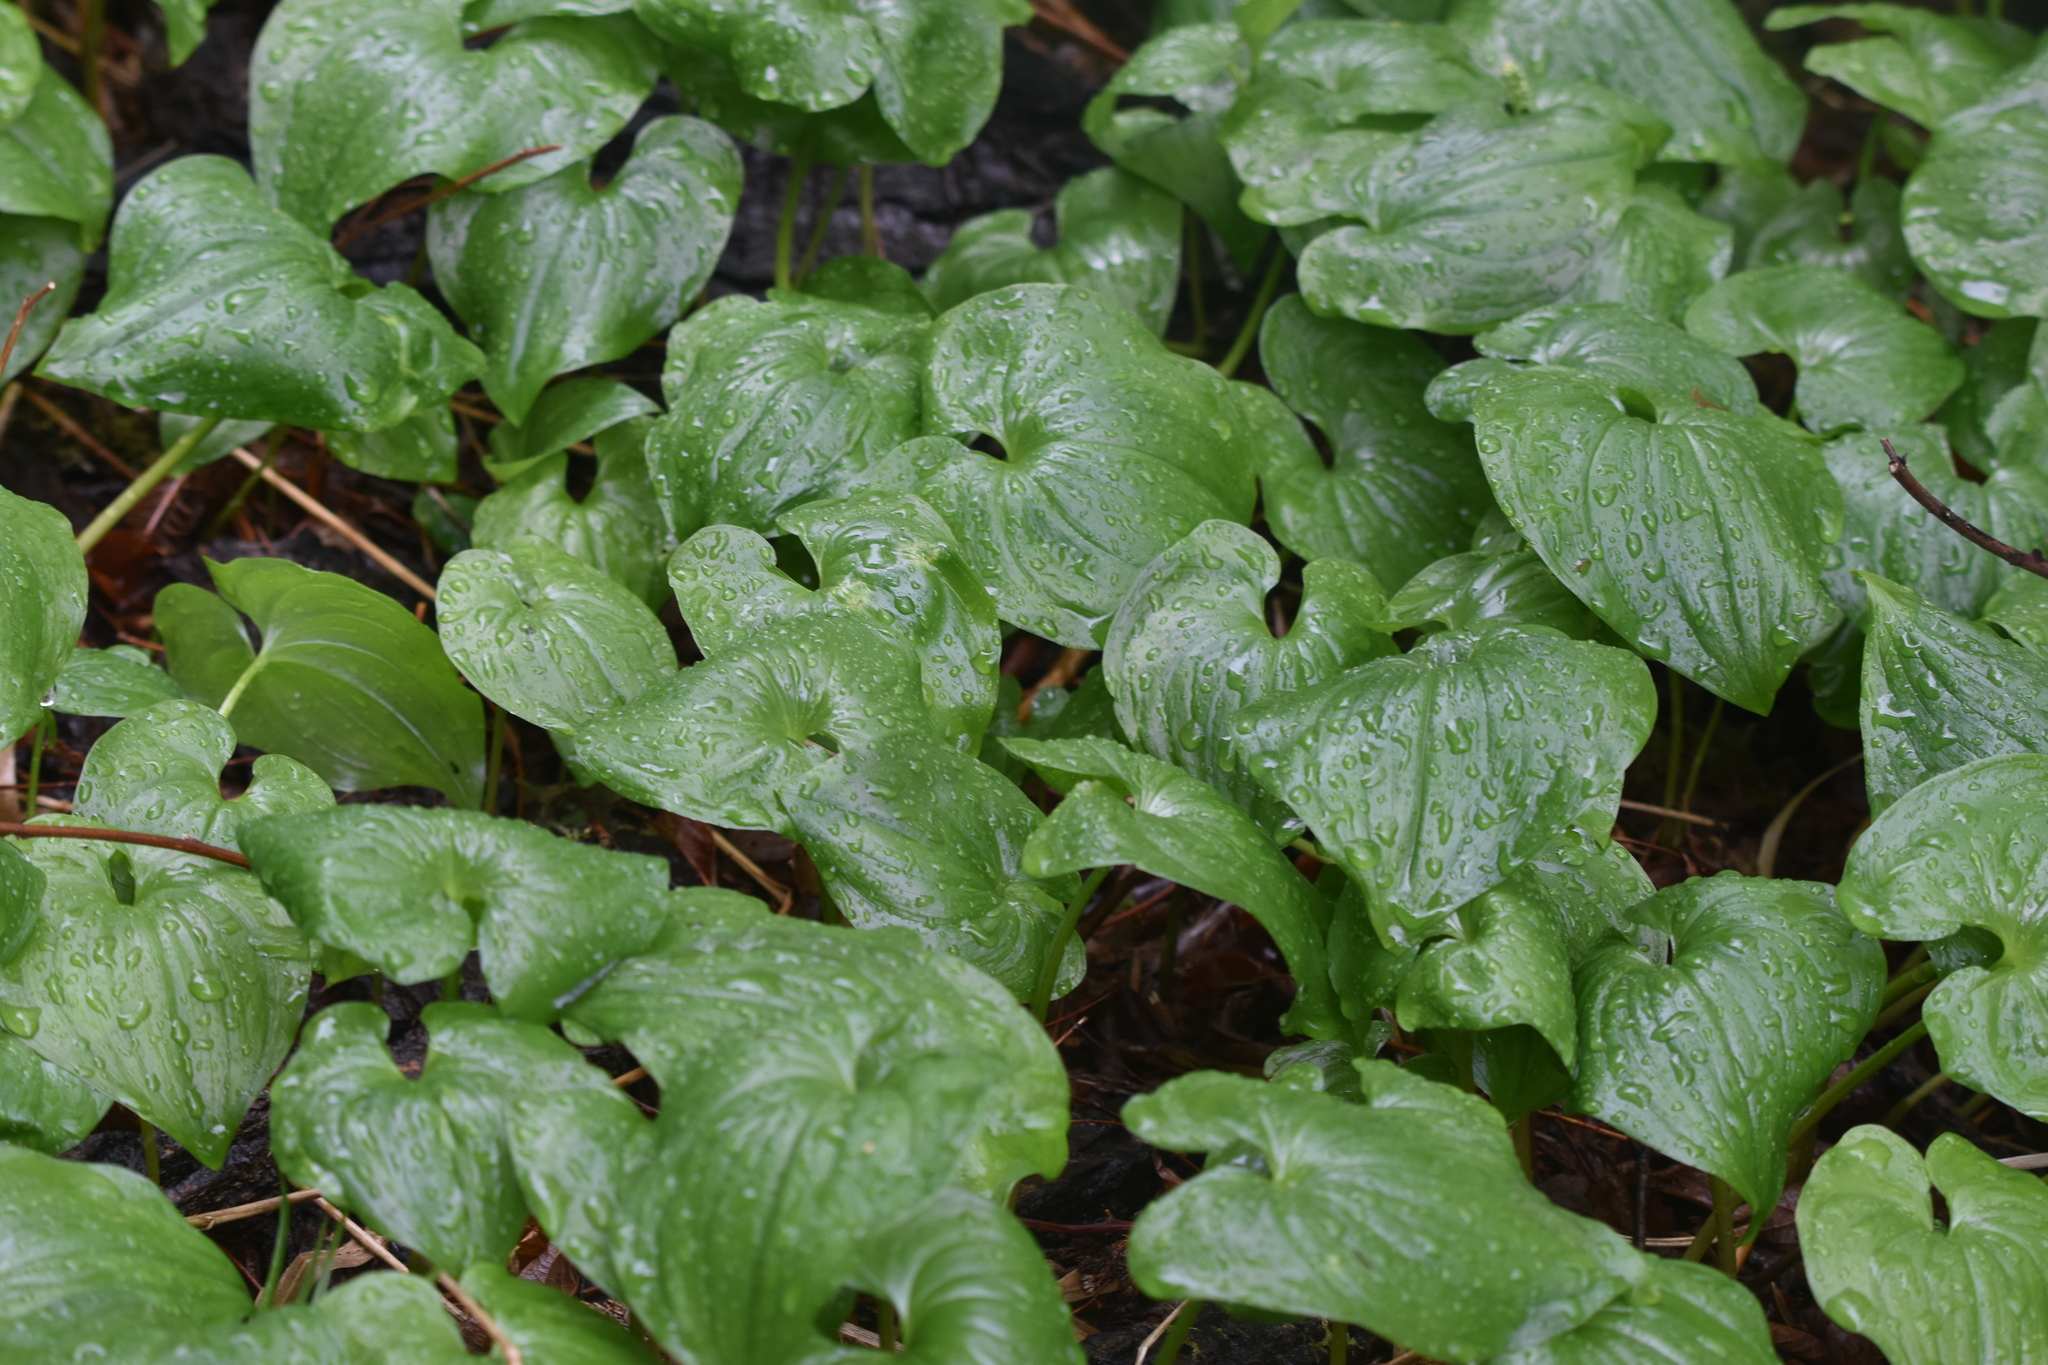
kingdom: Plantae
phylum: Tracheophyta
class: Liliopsida
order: Asparagales
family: Asparagaceae
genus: Maianthemum
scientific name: Maianthemum dilatatum
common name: False lily-of-the-valley
